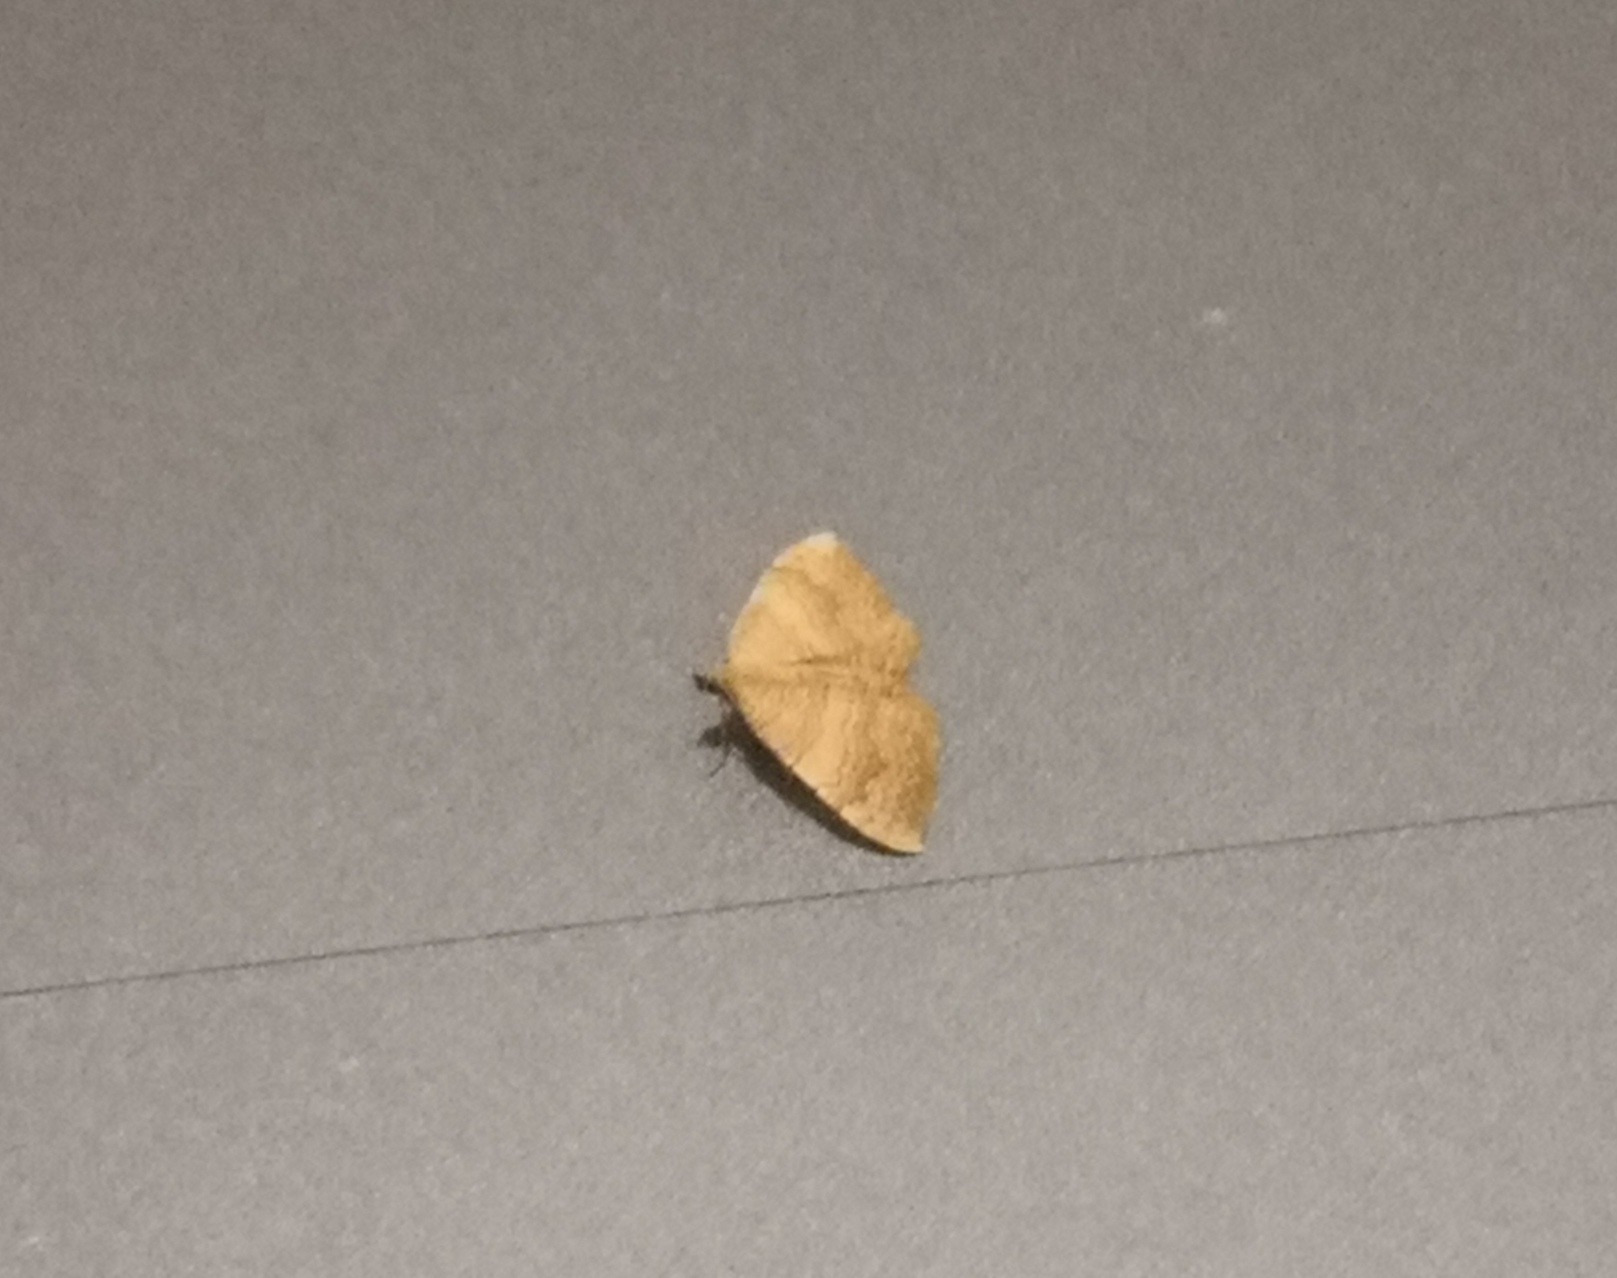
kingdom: Animalia
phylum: Arthropoda
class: Insecta
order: Lepidoptera
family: Geometridae
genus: Camptogramma
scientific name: Camptogramma bilineata
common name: Yellow shell
